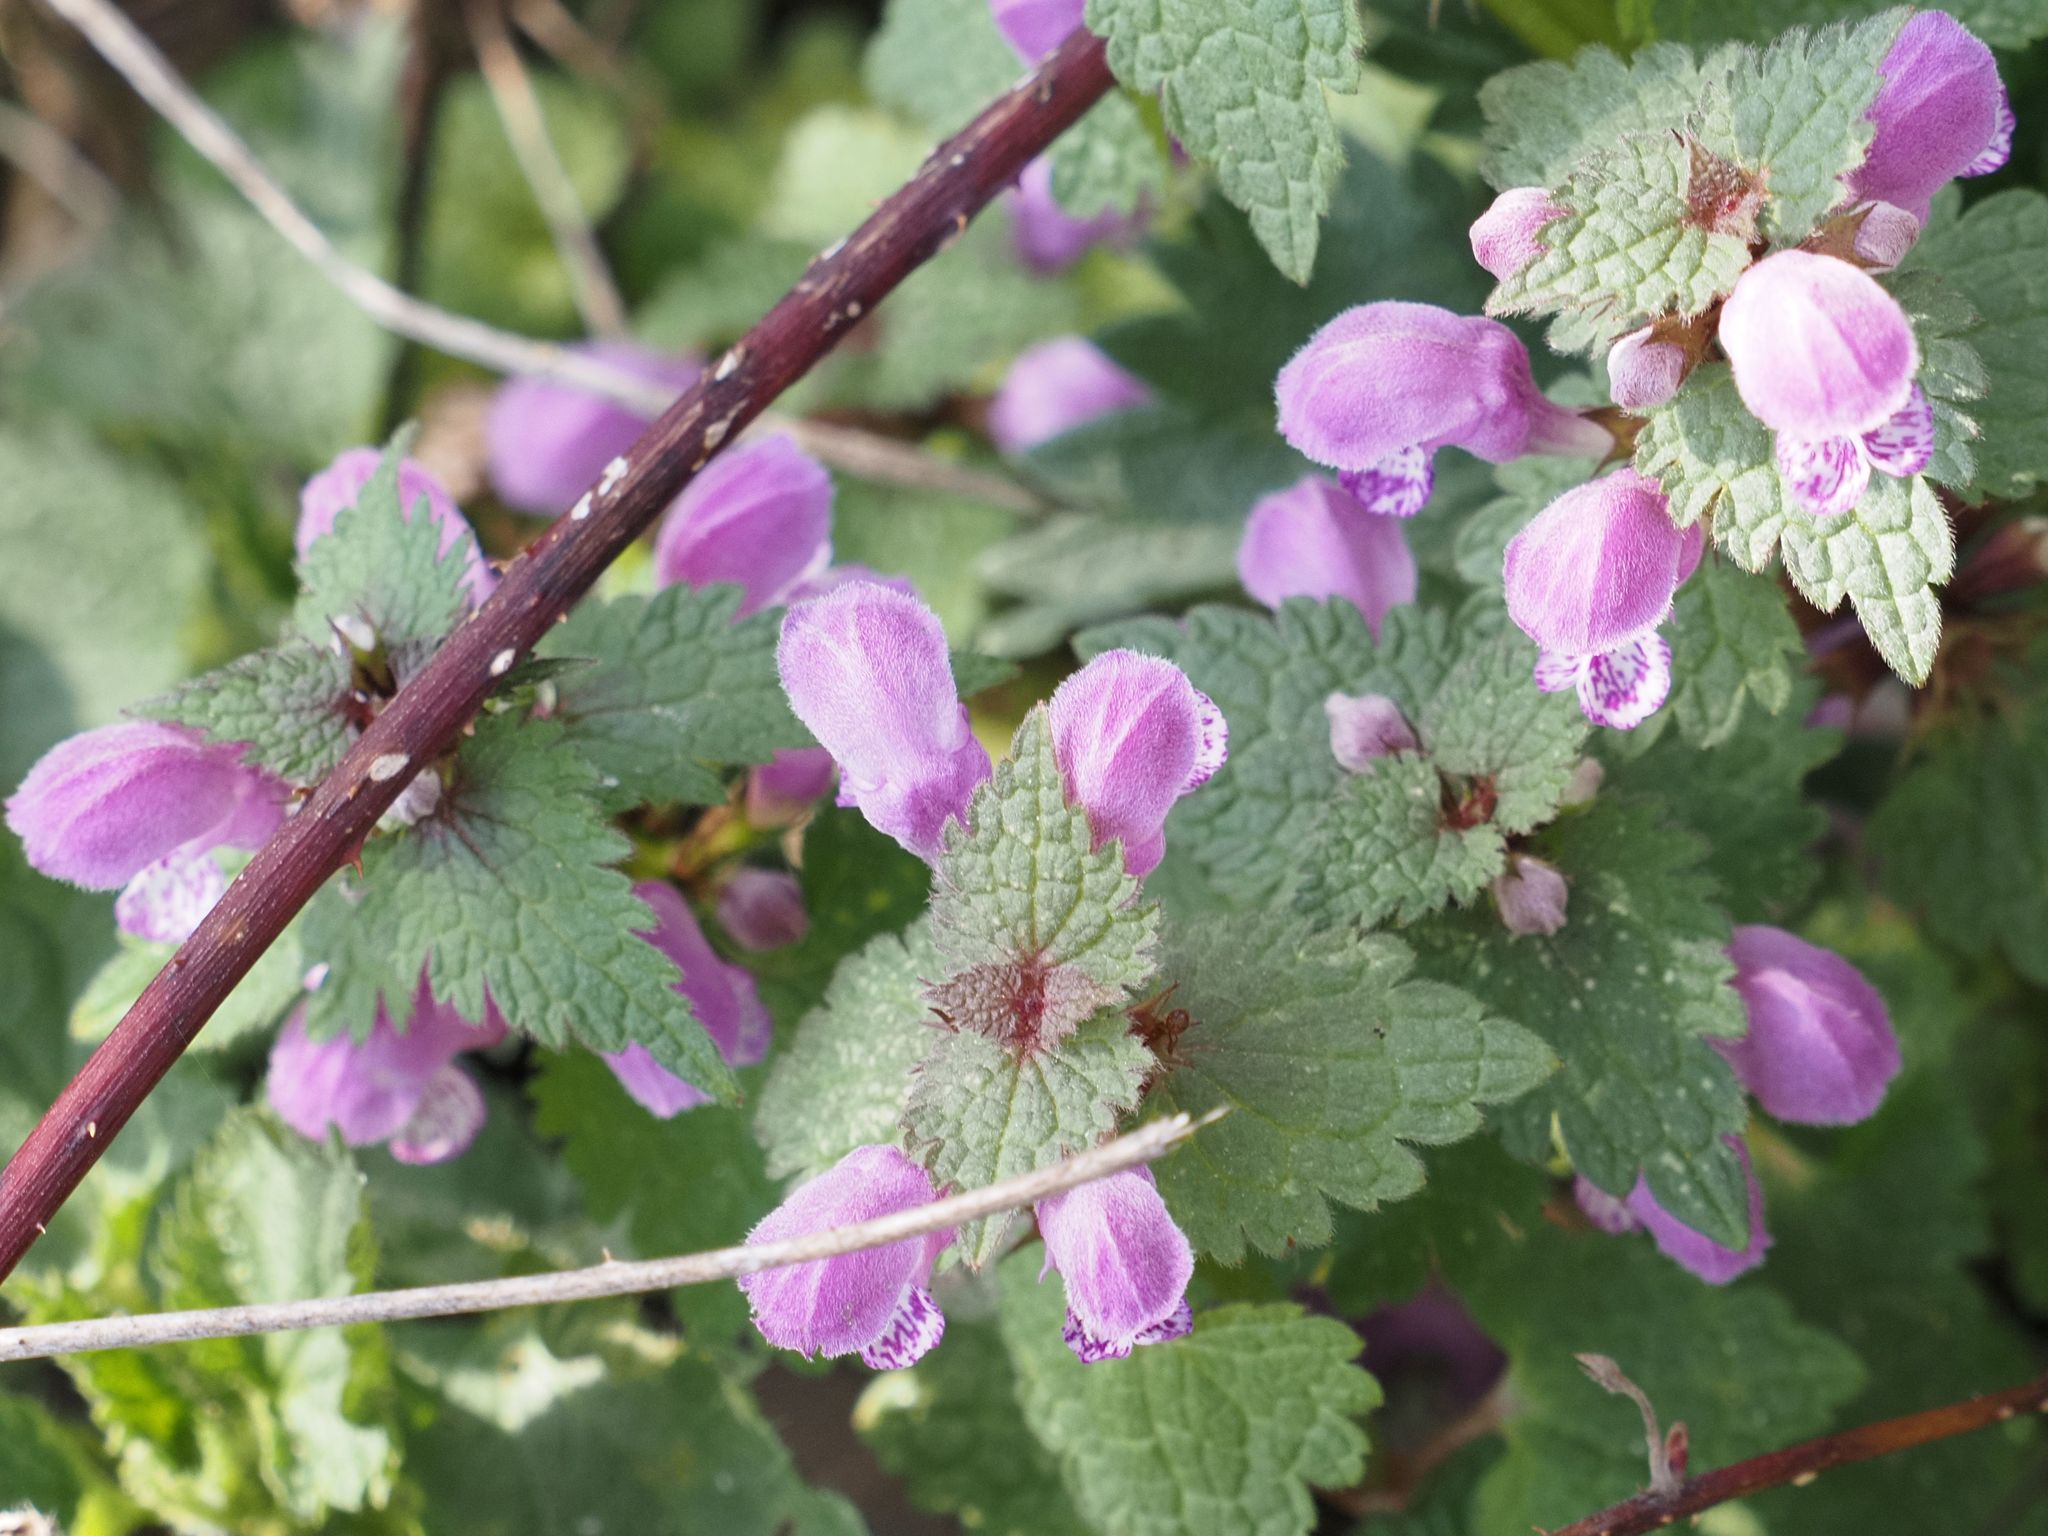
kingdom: Plantae
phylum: Tracheophyta
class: Magnoliopsida
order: Lamiales
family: Lamiaceae
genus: Lamium
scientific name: Lamium maculatum
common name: Spotted dead-nettle
